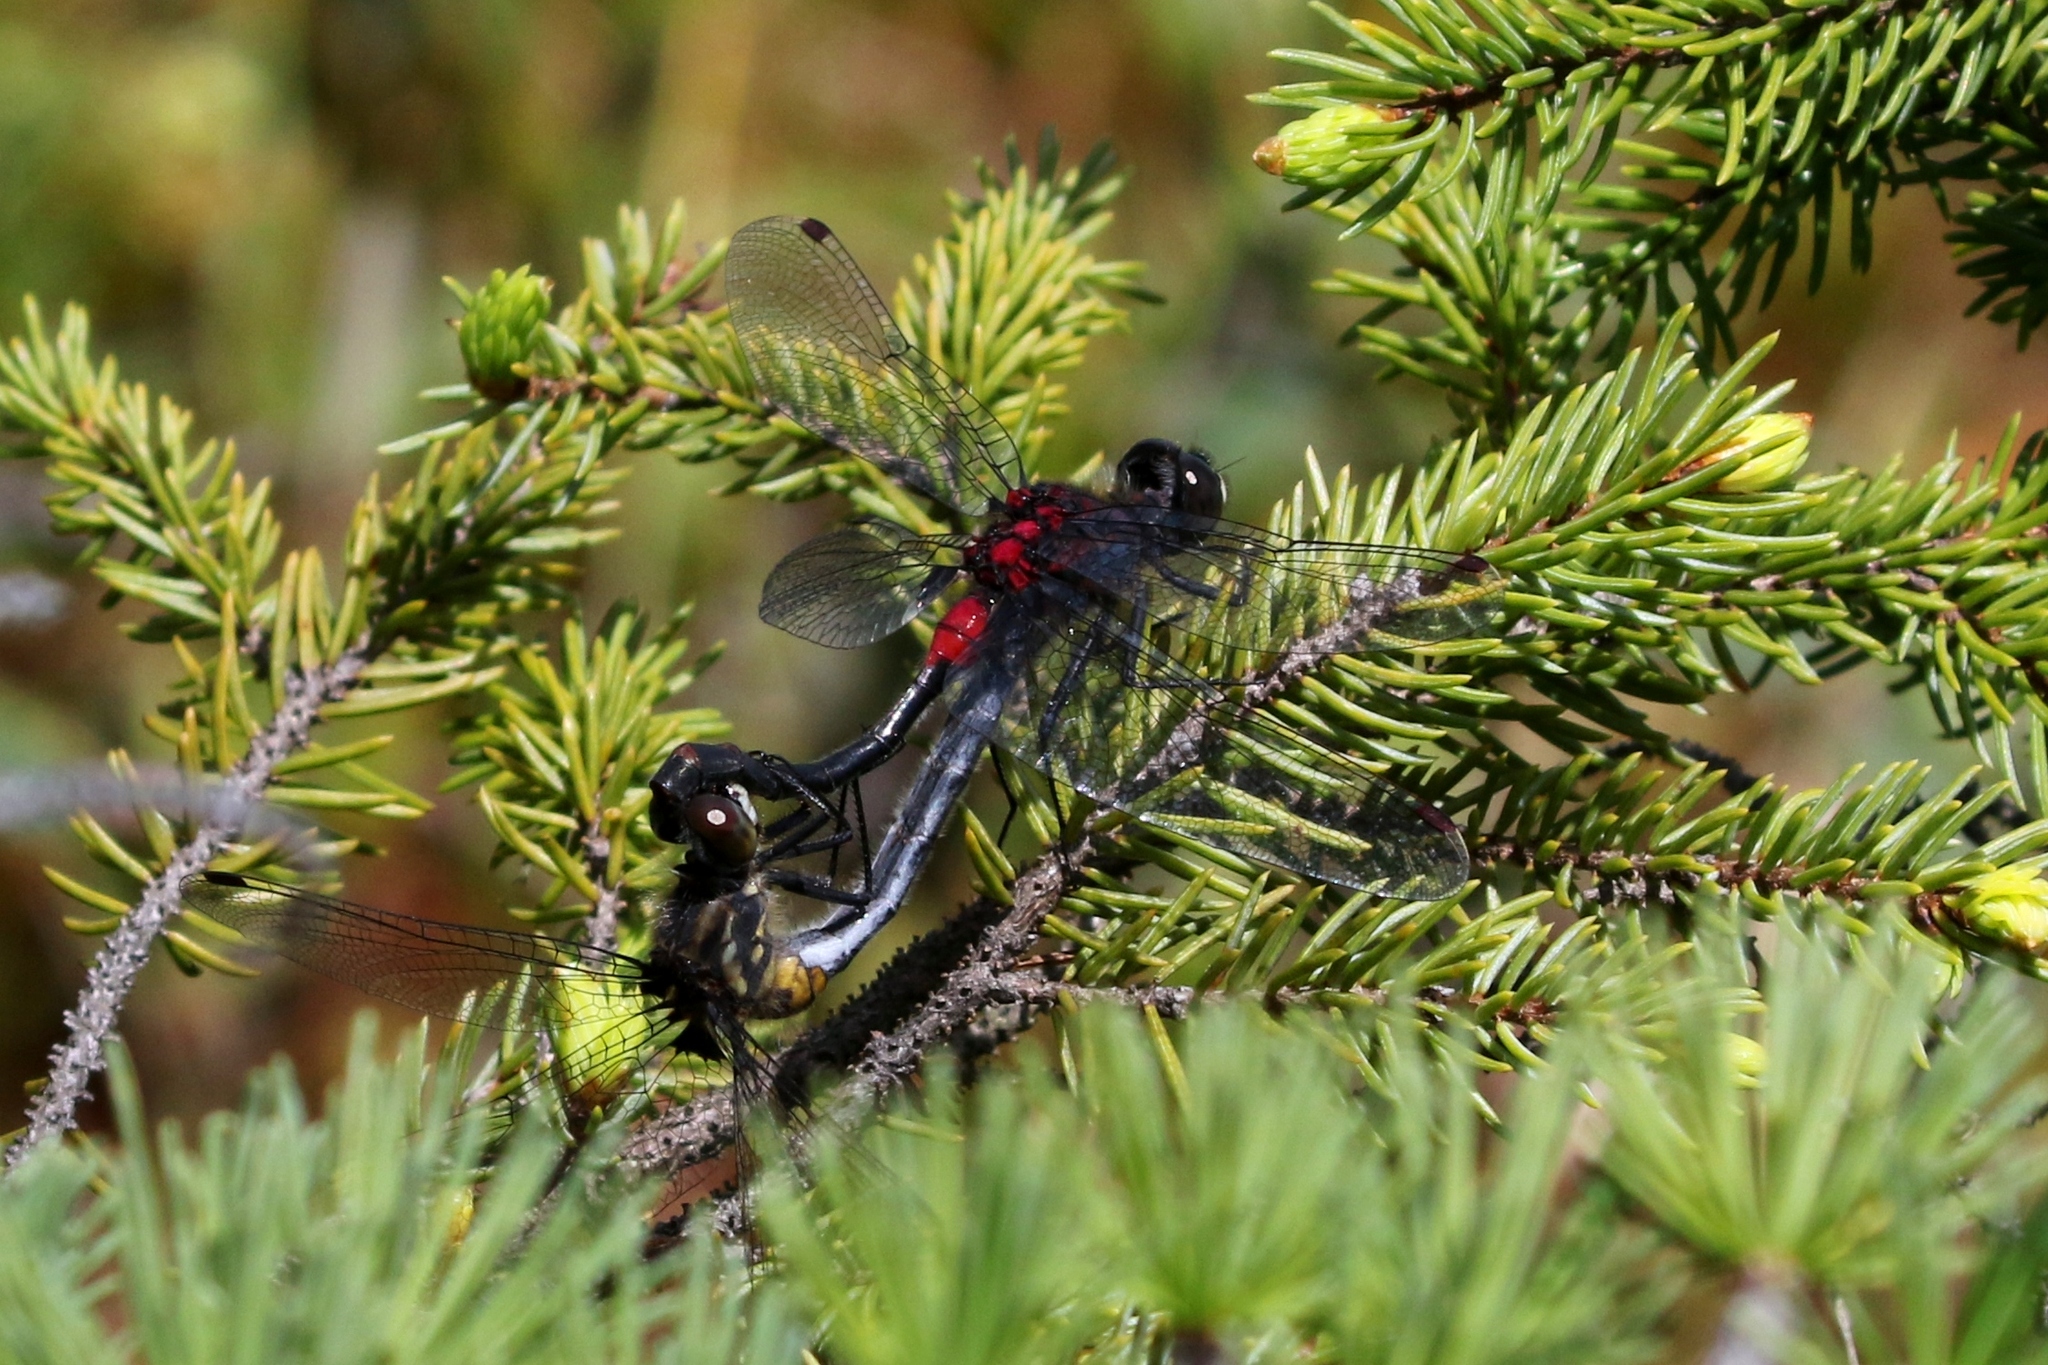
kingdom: Animalia
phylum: Arthropoda
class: Insecta
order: Odonata
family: Libellulidae
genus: Leucorrhinia
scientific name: Leucorrhinia glacialis
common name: Crimson-ringed whiteface
